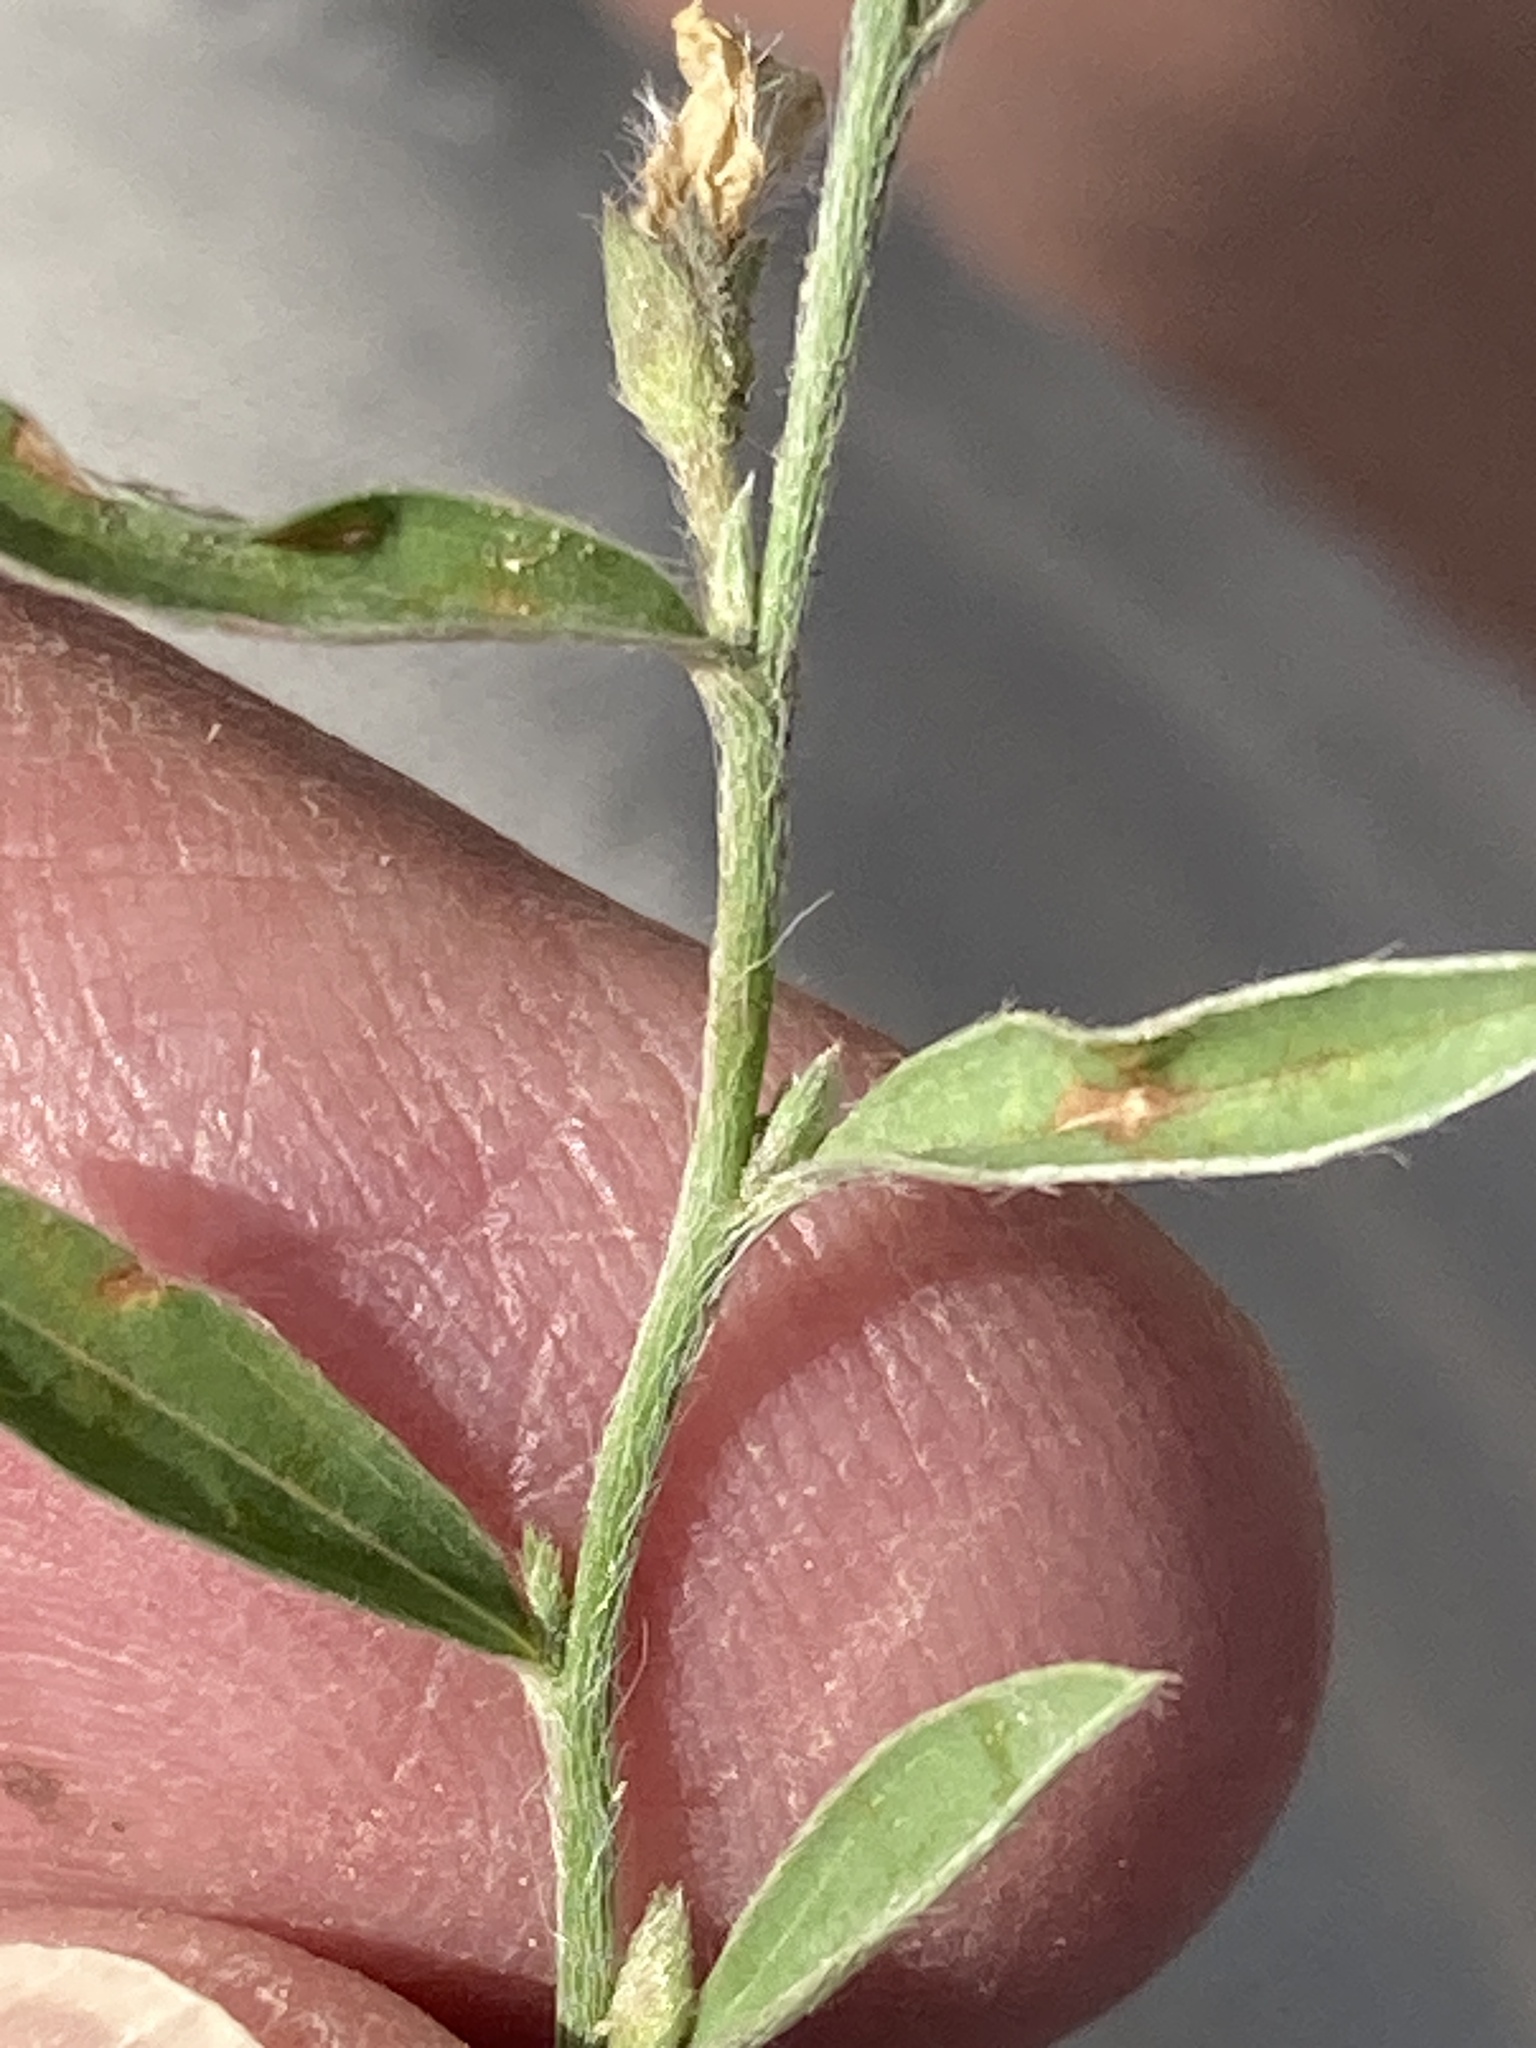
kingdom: Plantae
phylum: Tracheophyta
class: Magnoliopsida
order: Solanales
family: Convolvulaceae
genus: Evolvulus
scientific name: Evolvulus sericeus
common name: Blue dots
